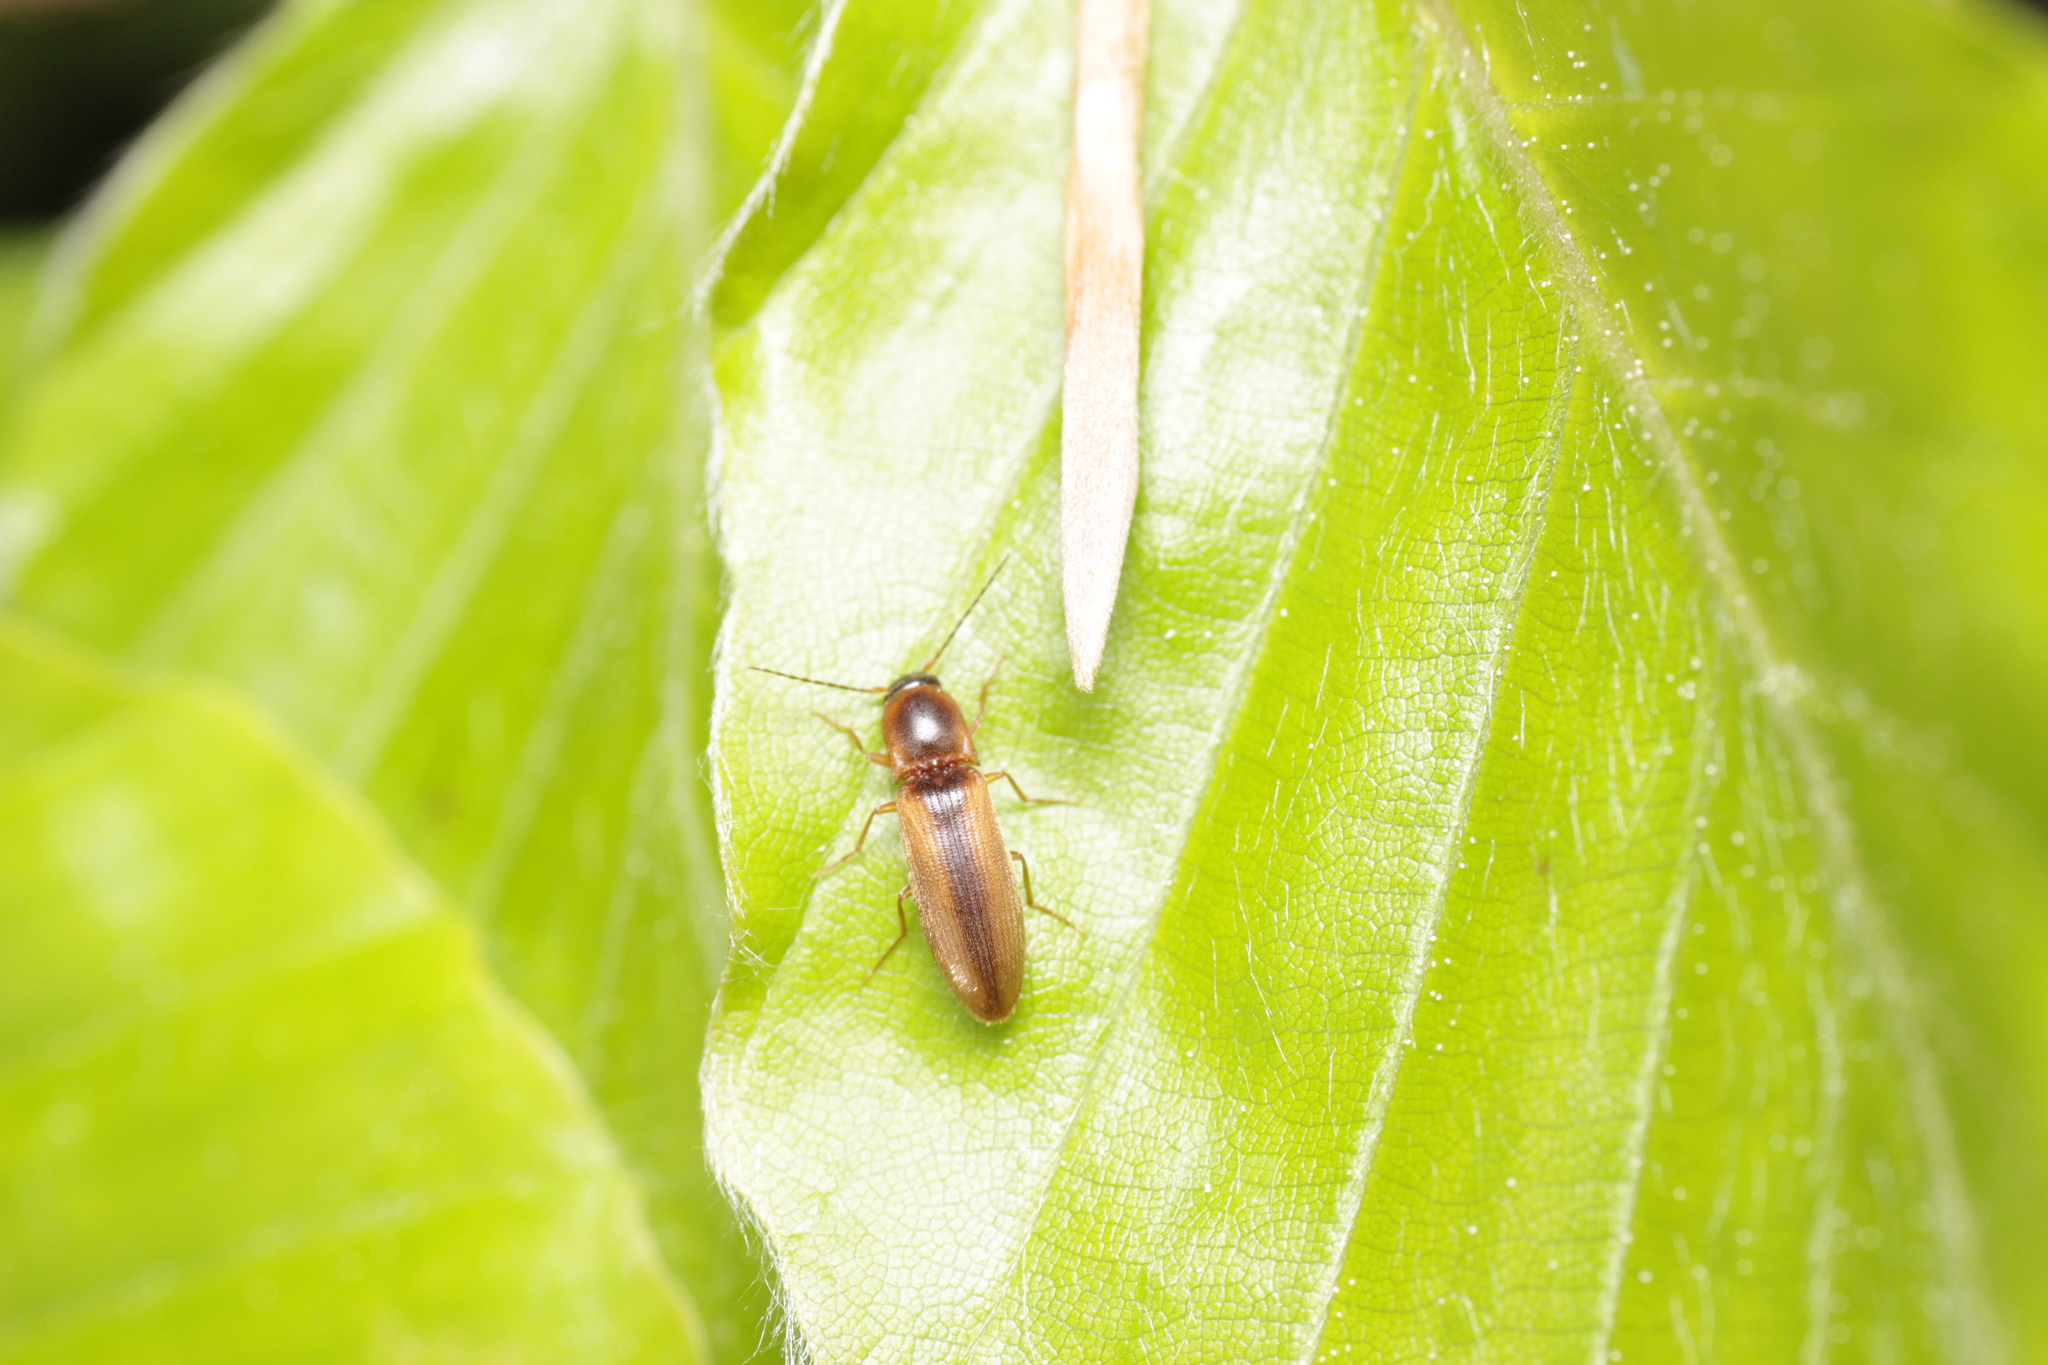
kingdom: Animalia
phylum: Arthropoda
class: Insecta
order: Coleoptera
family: Elateridae
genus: Dalopius
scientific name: Dalopius marginatus
